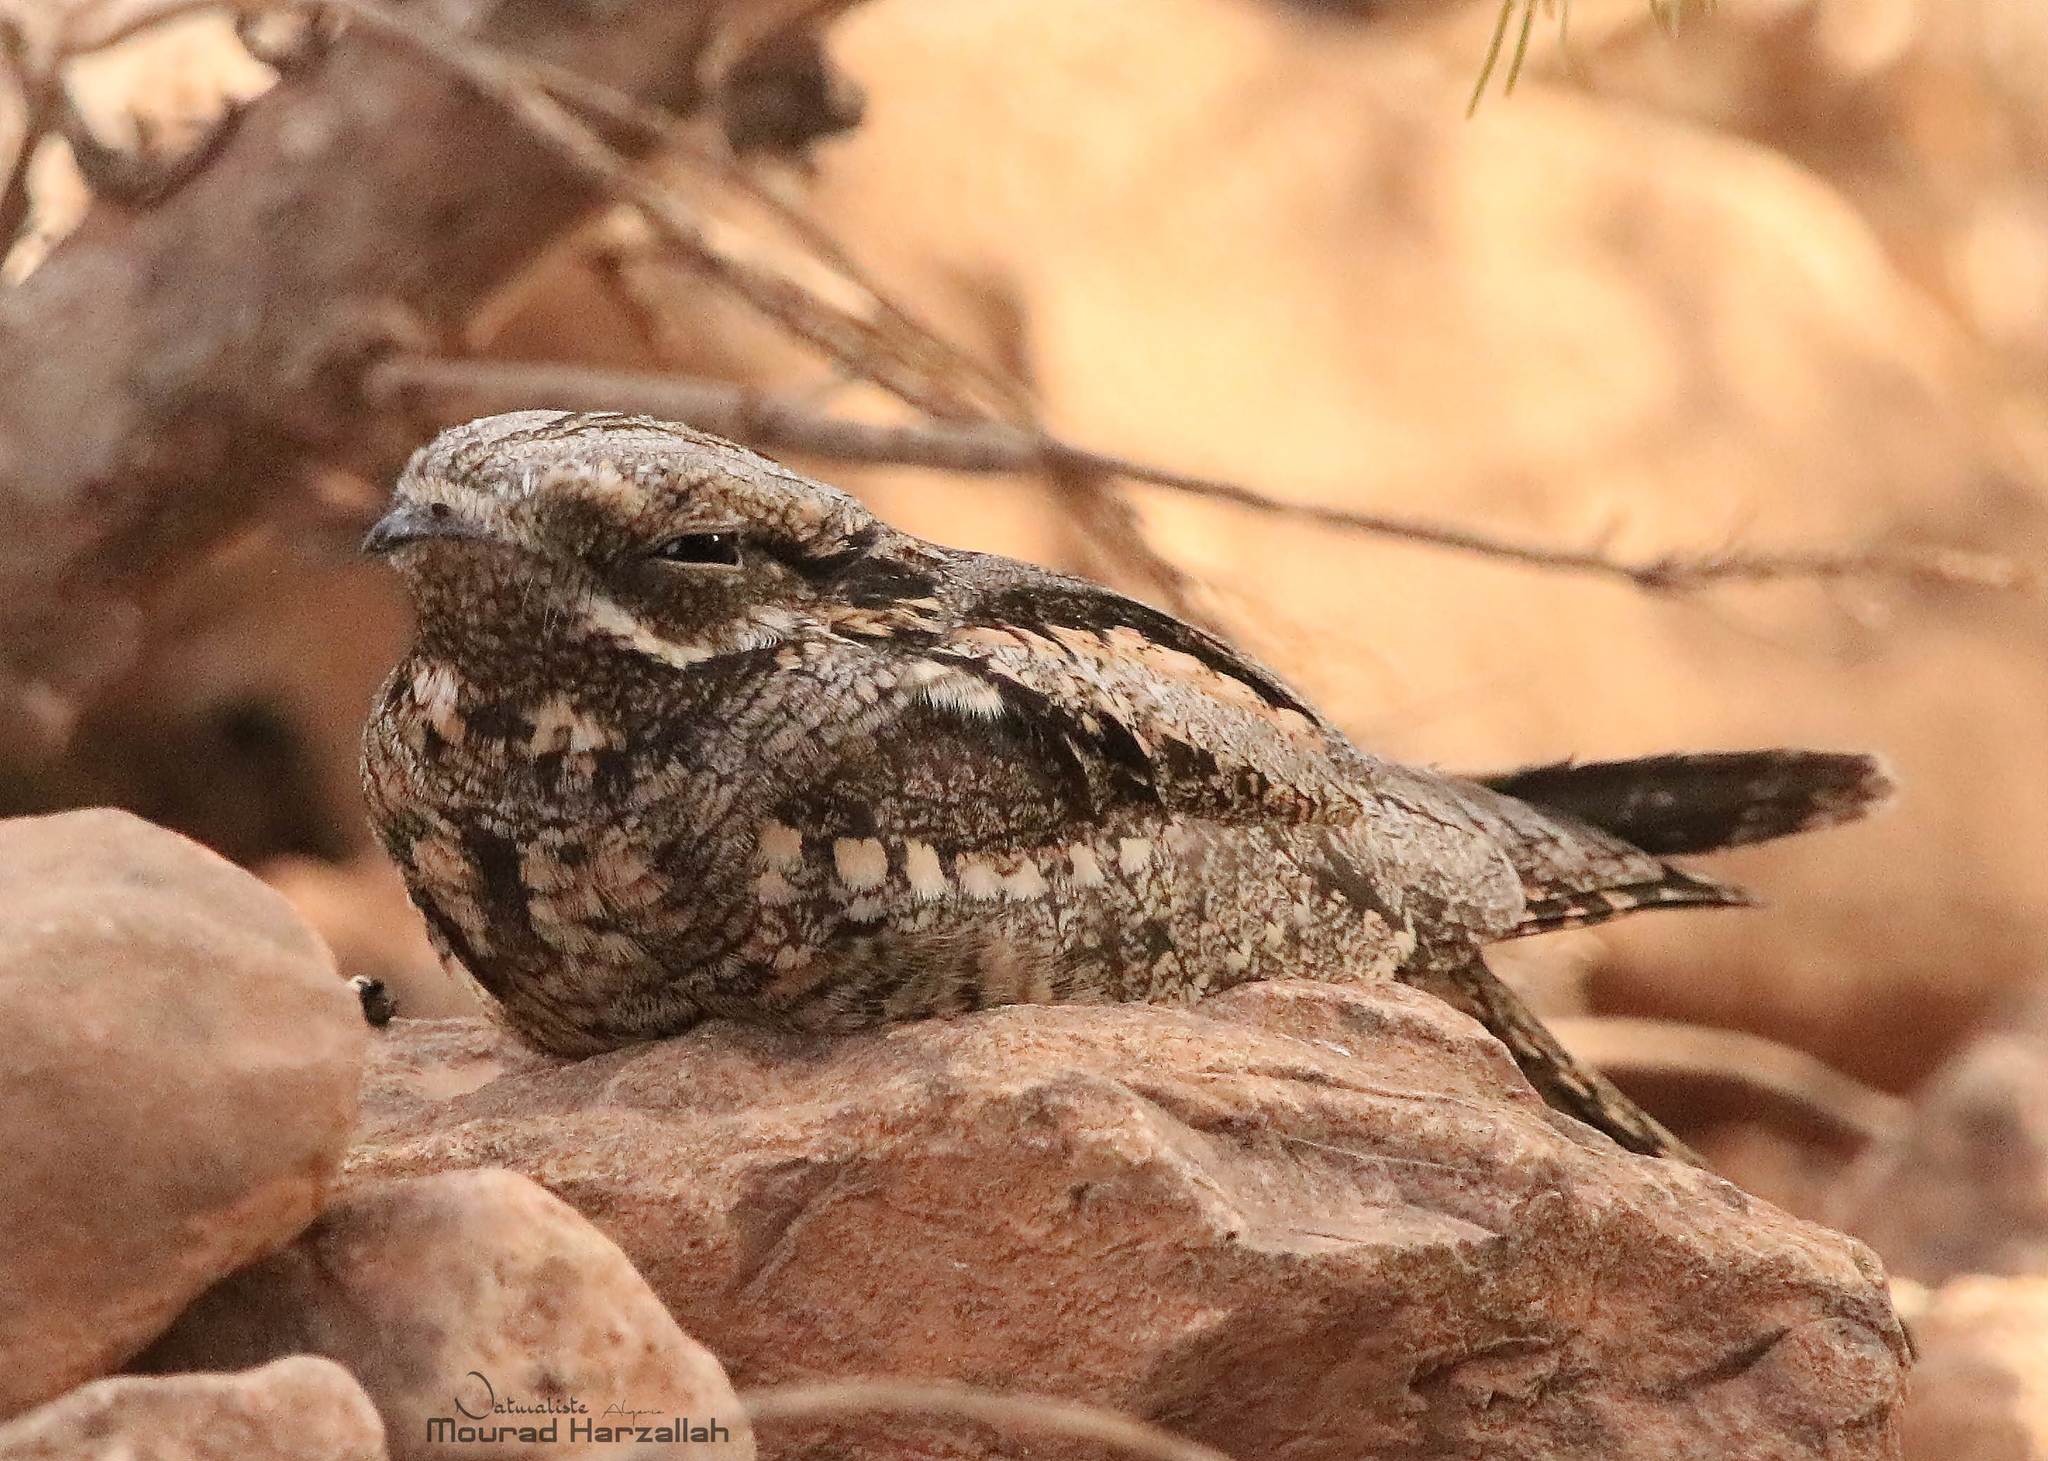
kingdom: Animalia
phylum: Chordata
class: Aves
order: Caprimulgiformes
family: Caprimulgidae
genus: Caprimulgus
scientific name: Caprimulgus europaeus
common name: European nightjar
